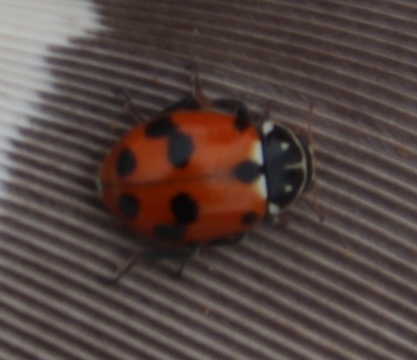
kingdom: Animalia
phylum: Arthropoda
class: Insecta
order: Coleoptera
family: Coccinellidae
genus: Hippodamia
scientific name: Hippodamia variegata
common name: Ladybird beetle
